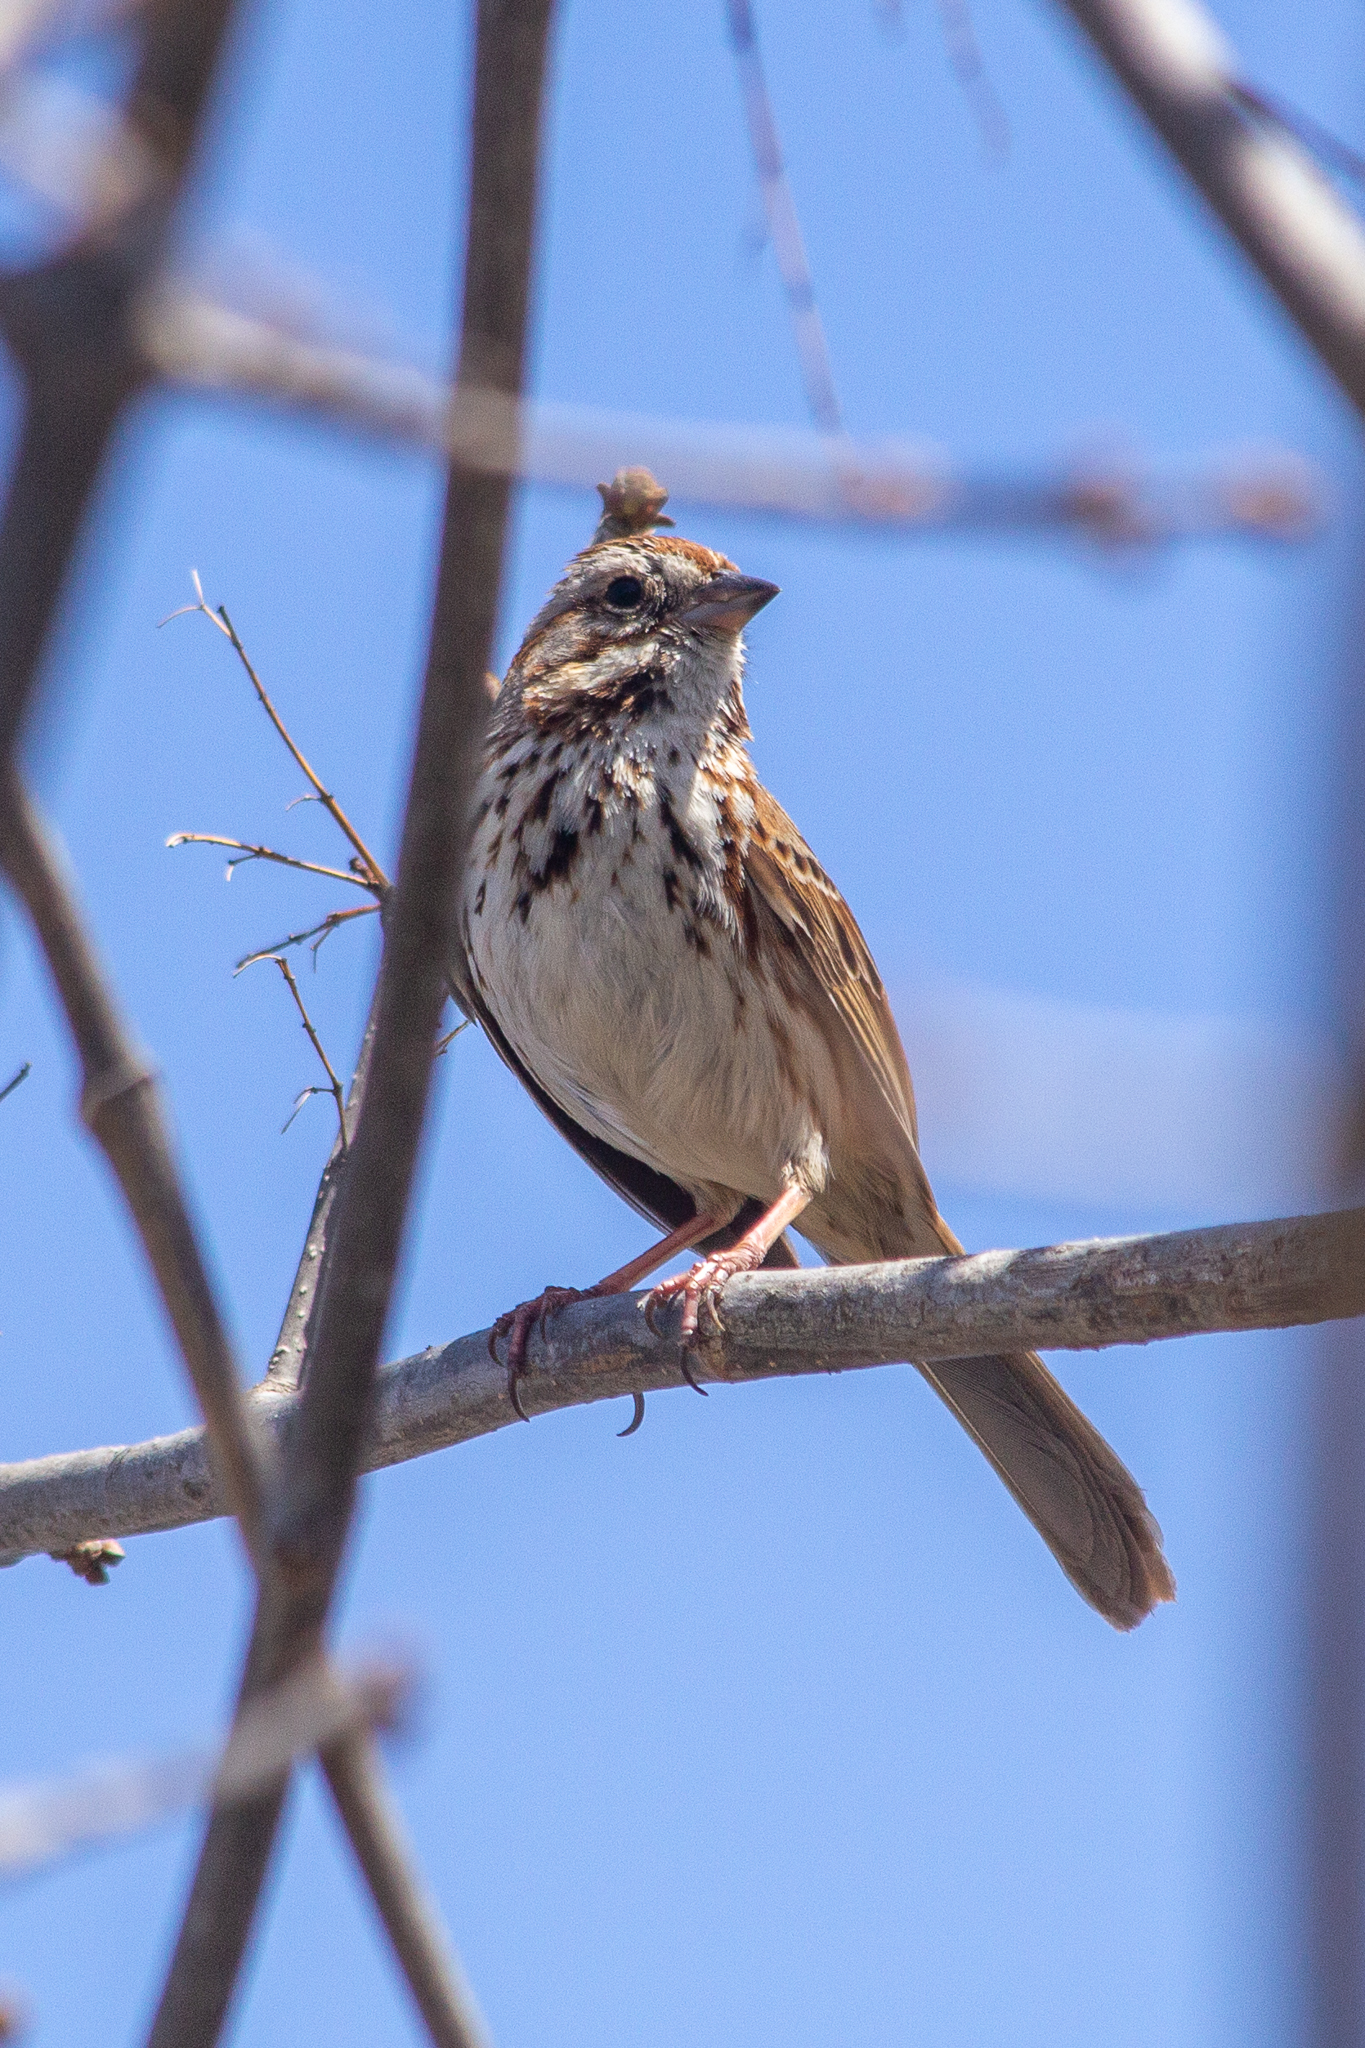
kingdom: Animalia
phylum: Chordata
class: Aves
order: Passeriformes
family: Passerellidae
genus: Melospiza
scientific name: Melospiza melodia
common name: Song sparrow
